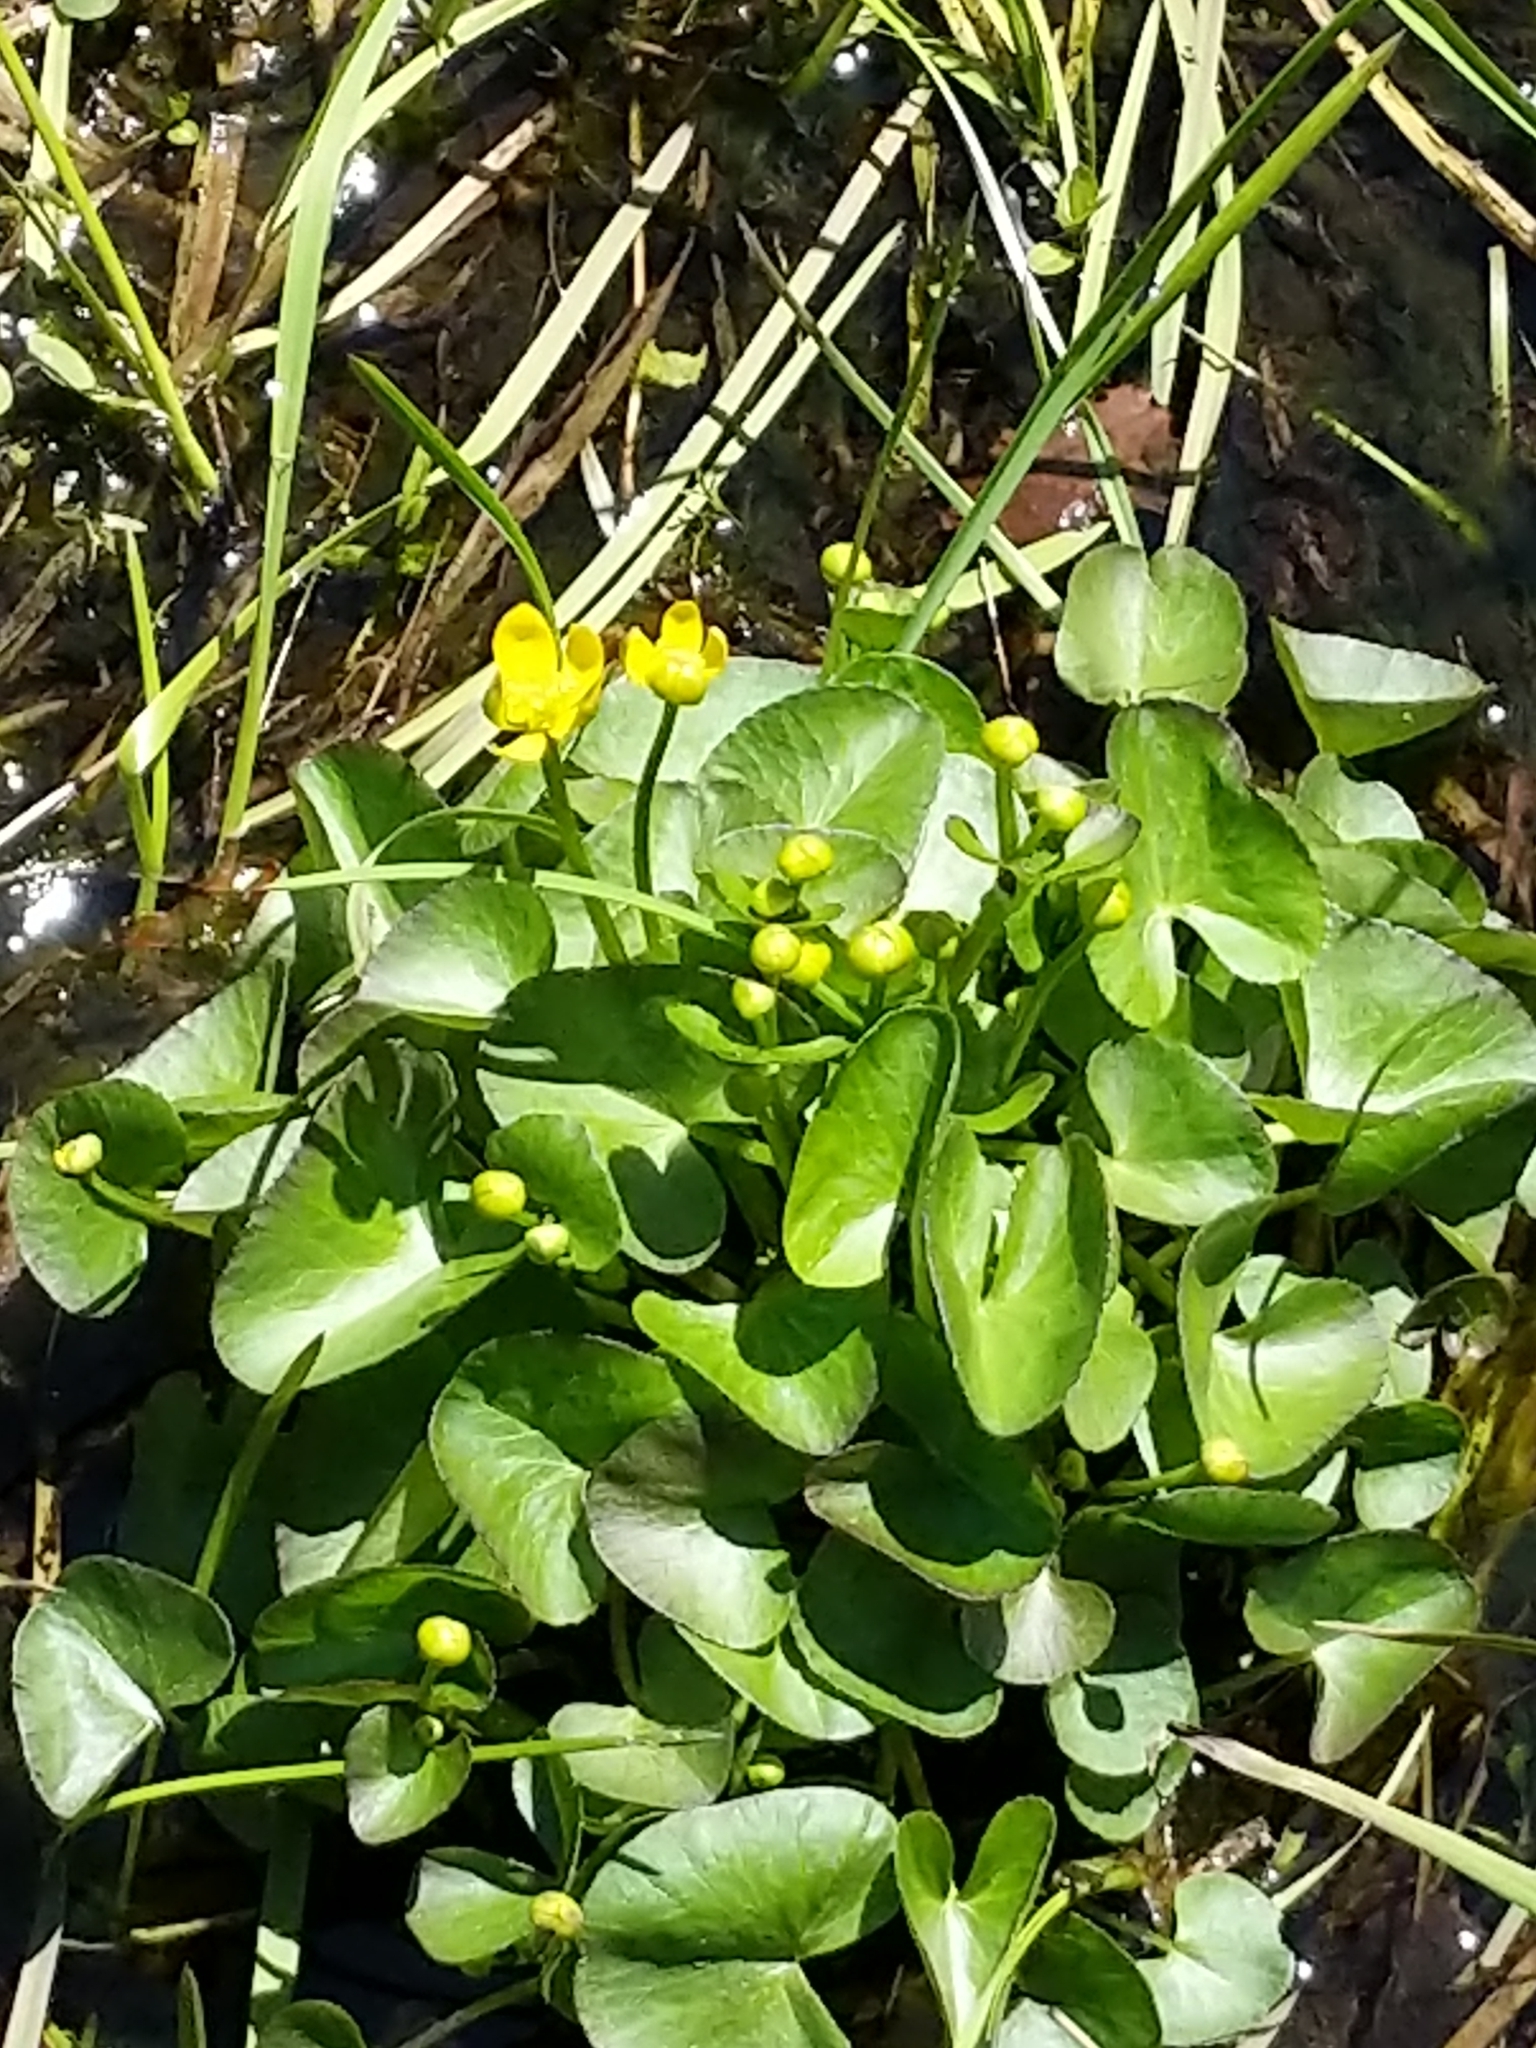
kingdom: Plantae
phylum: Tracheophyta
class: Magnoliopsida
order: Ranunculales
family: Ranunculaceae
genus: Caltha
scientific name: Caltha palustris
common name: Marsh marigold
